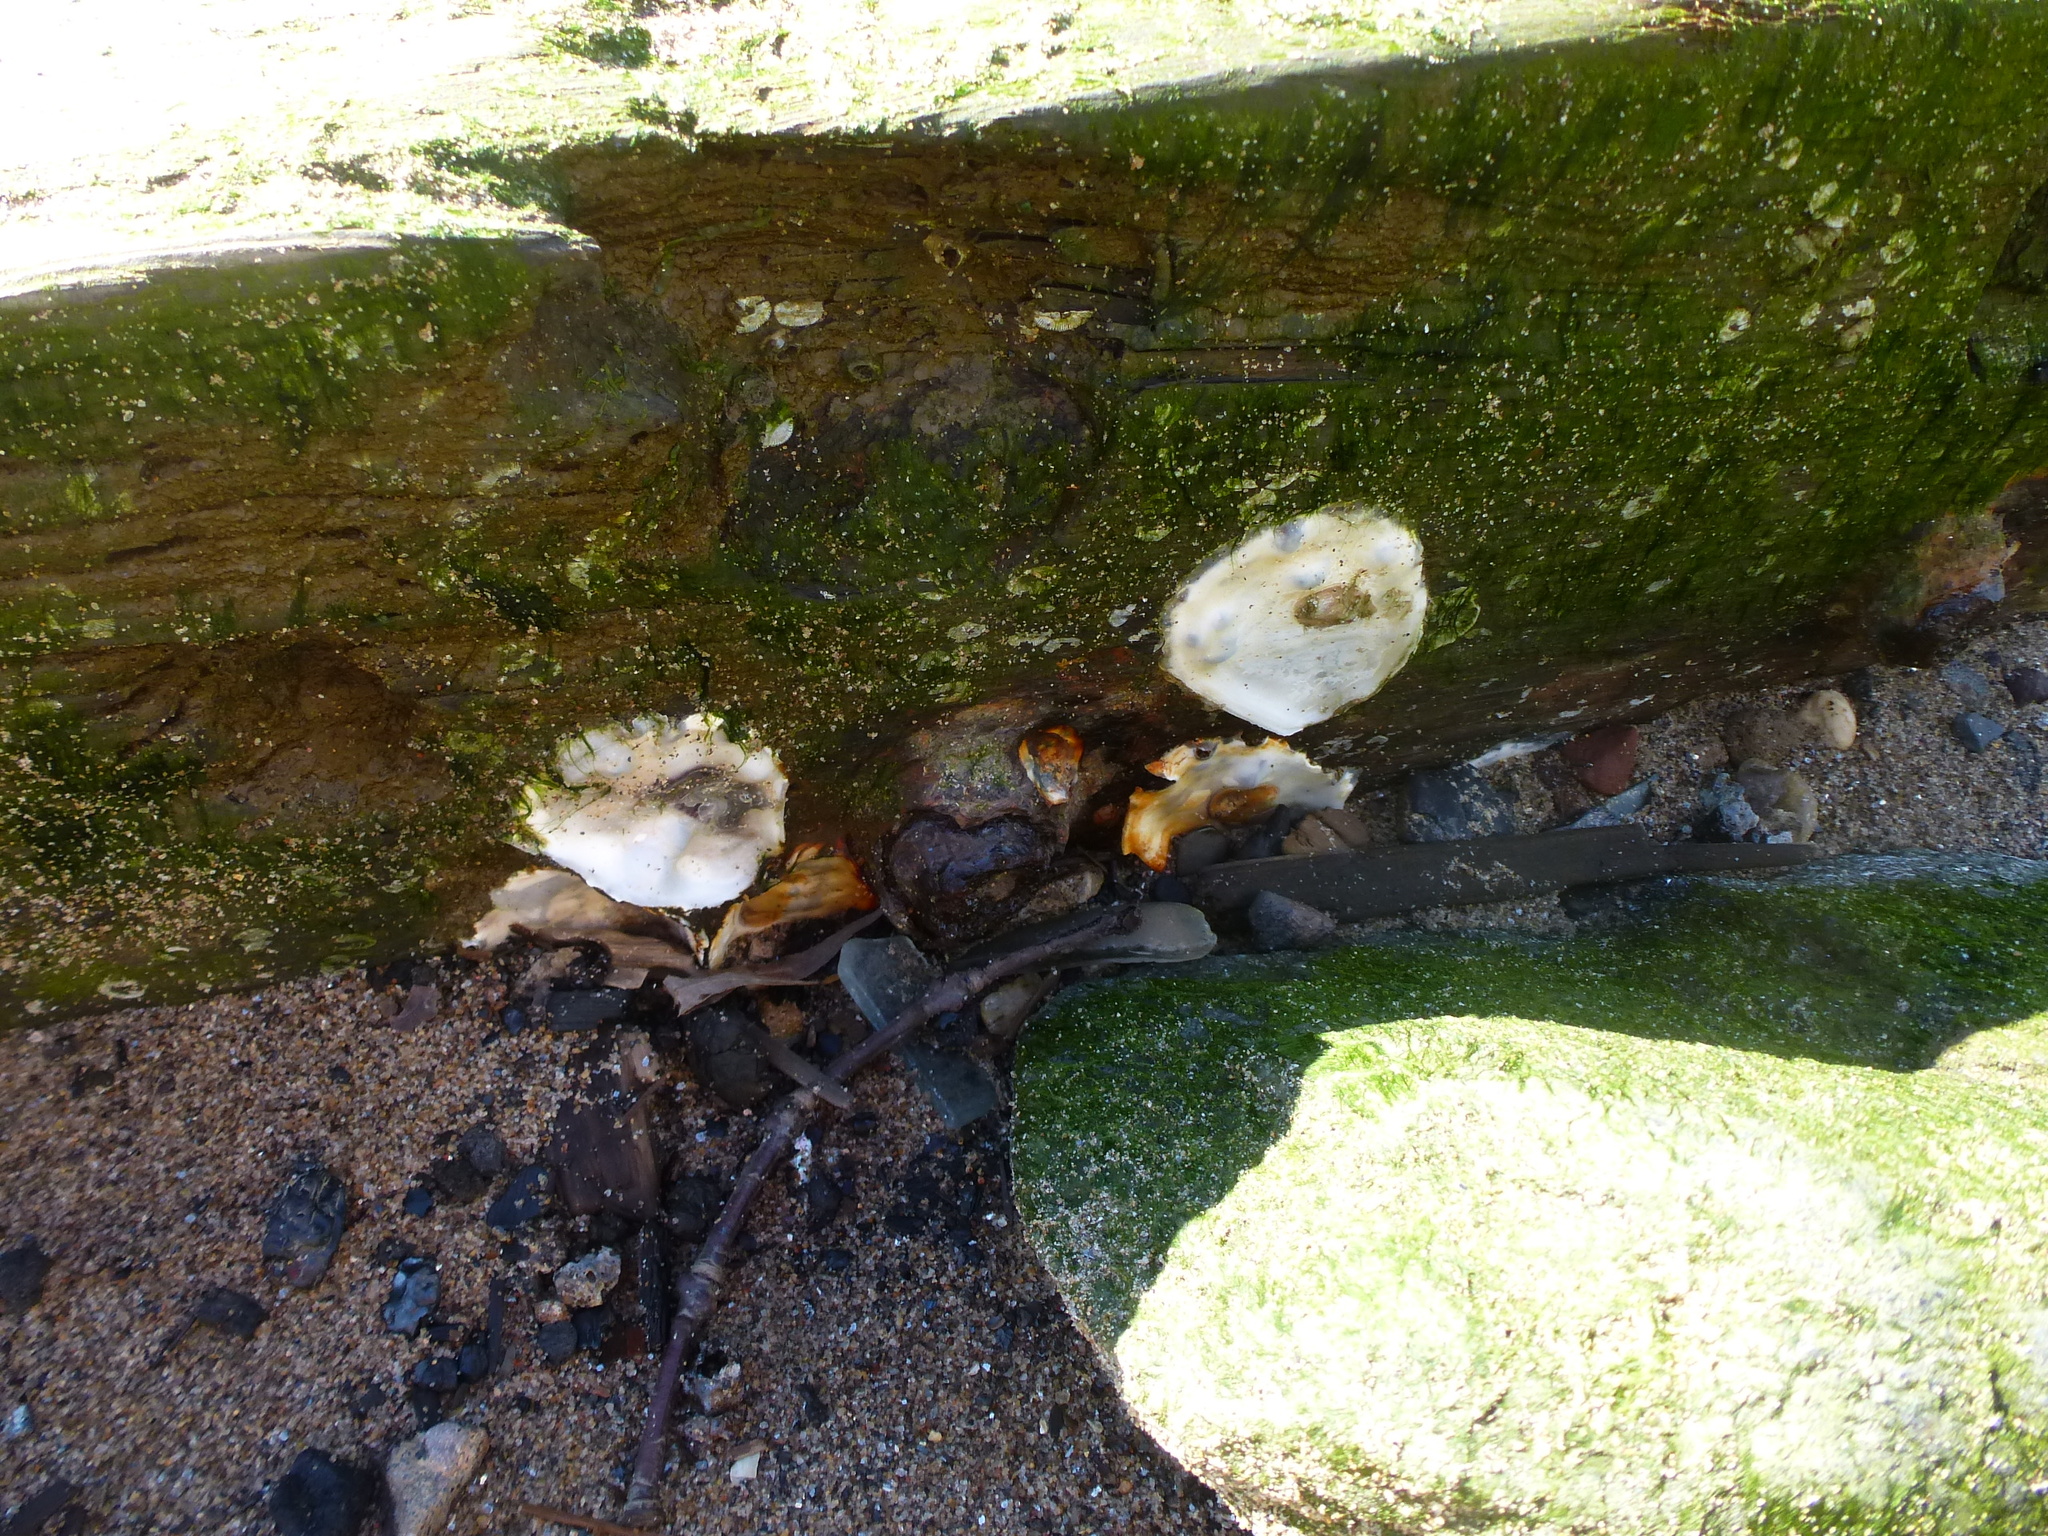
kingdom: Animalia
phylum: Mollusca
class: Bivalvia
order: Ostreida
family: Ostreidae
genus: Crassostrea
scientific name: Crassostrea virginica
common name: American oyster
